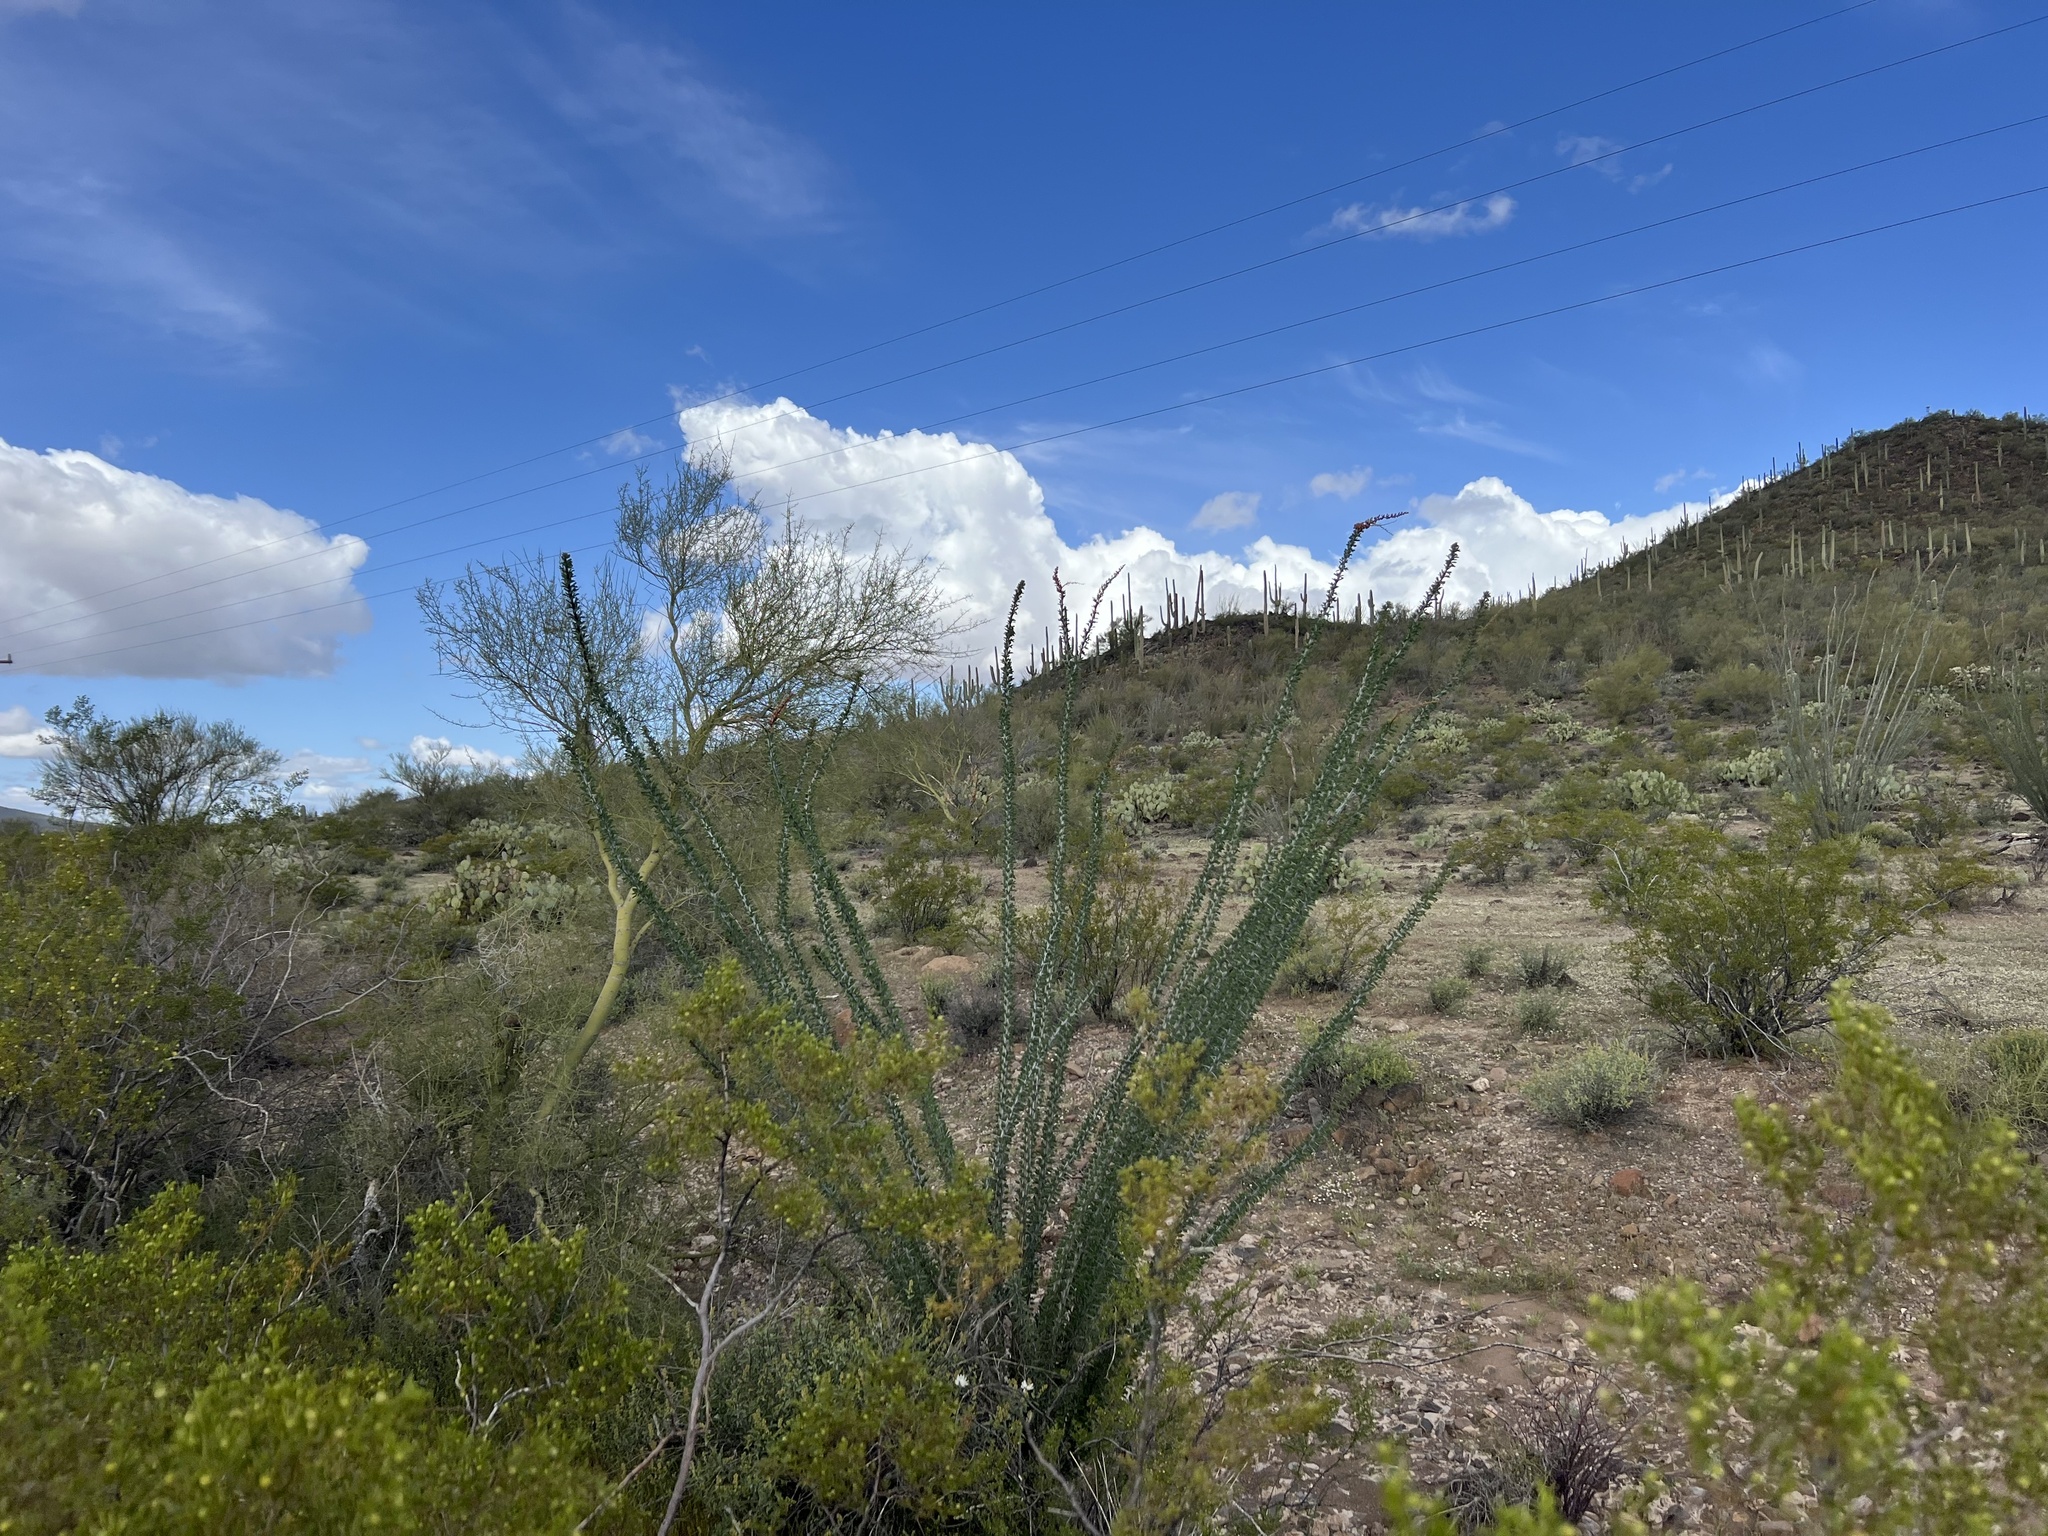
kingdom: Plantae
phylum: Tracheophyta
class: Magnoliopsida
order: Ericales
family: Fouquieriaceae
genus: Fouquieria
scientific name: Fouquieria splendens
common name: Vine-cactus
